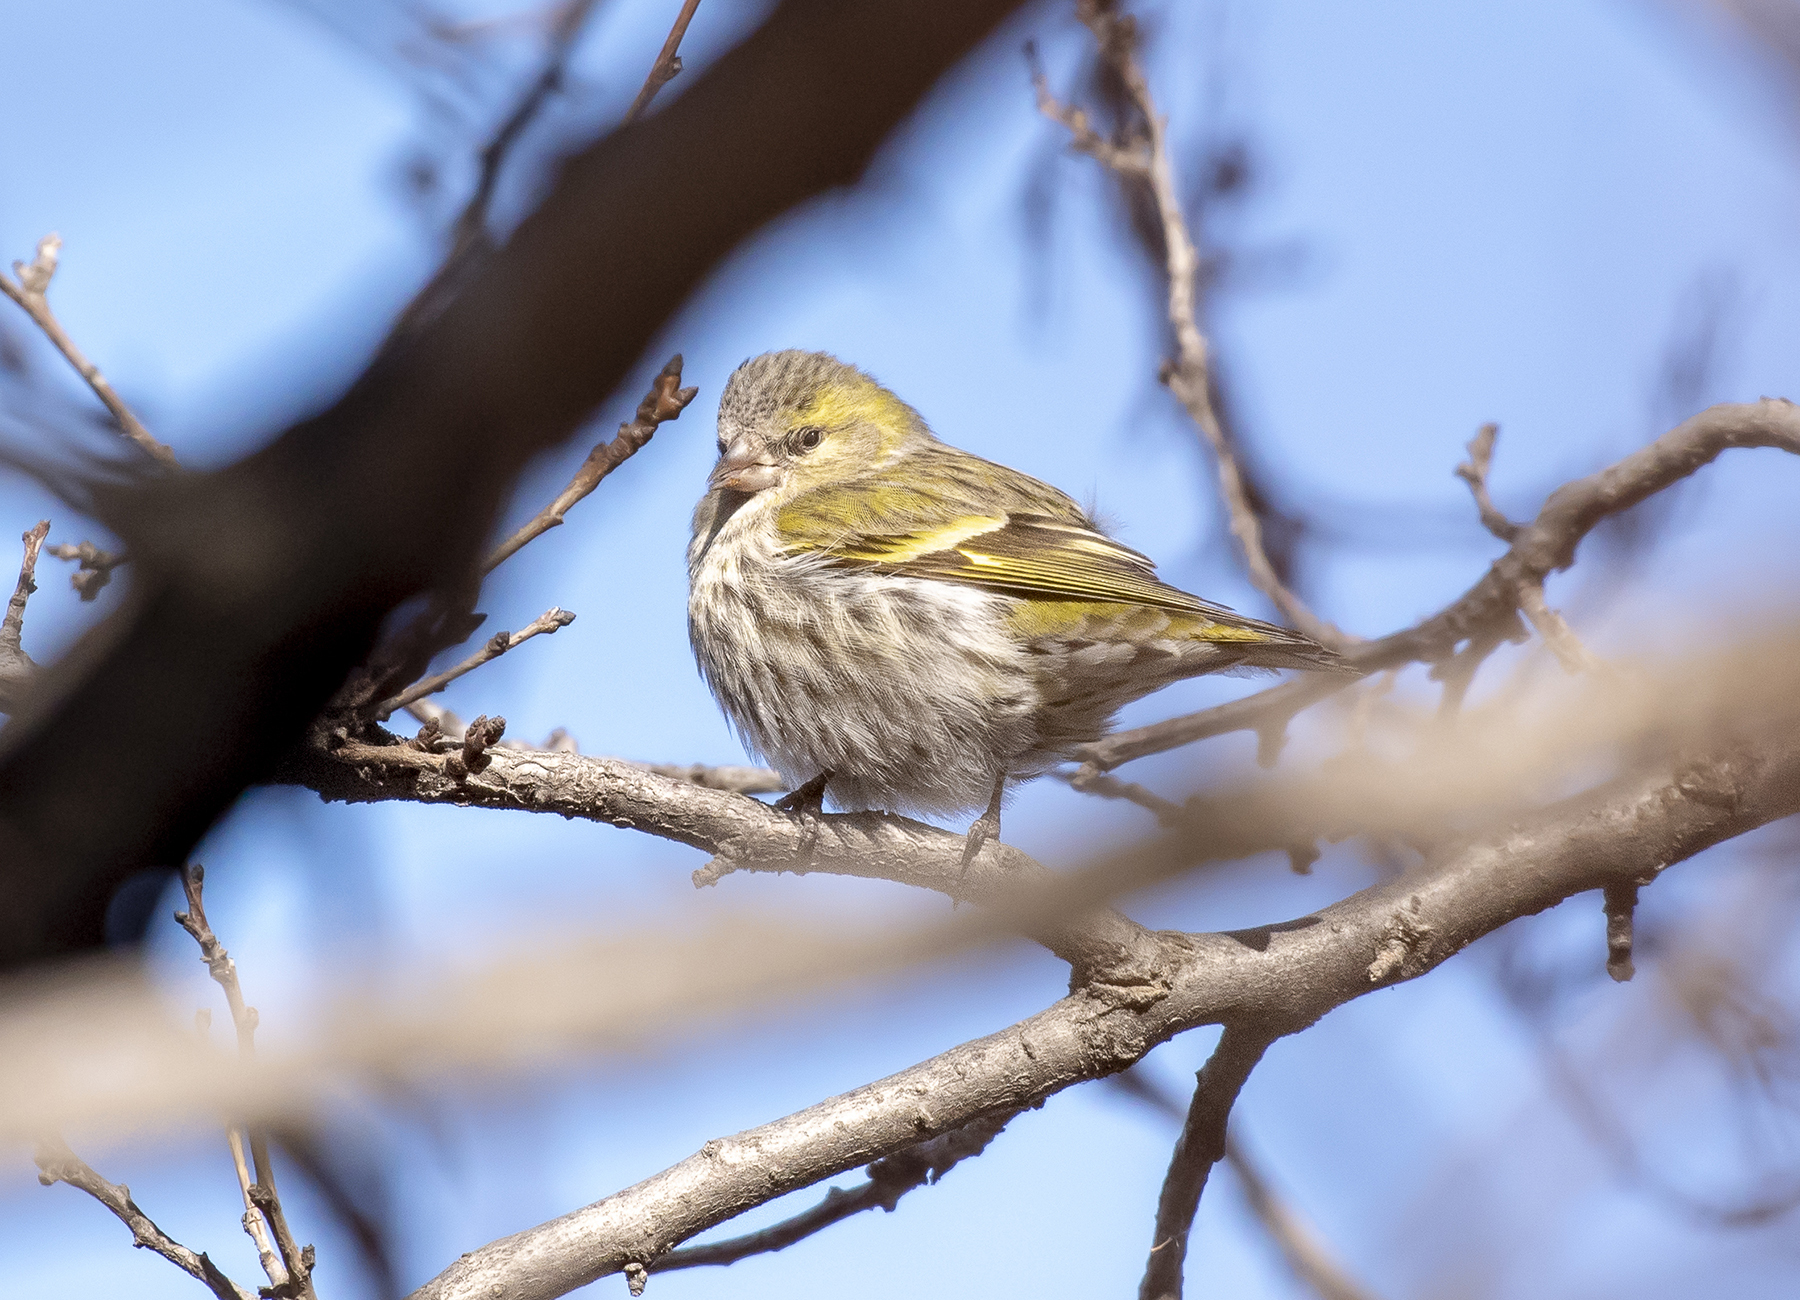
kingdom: Animalia
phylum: Chordata
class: Aves
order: Passeriformes
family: Fringillidae
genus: Spinus
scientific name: Spinus spinus
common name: Eurasian siskin
